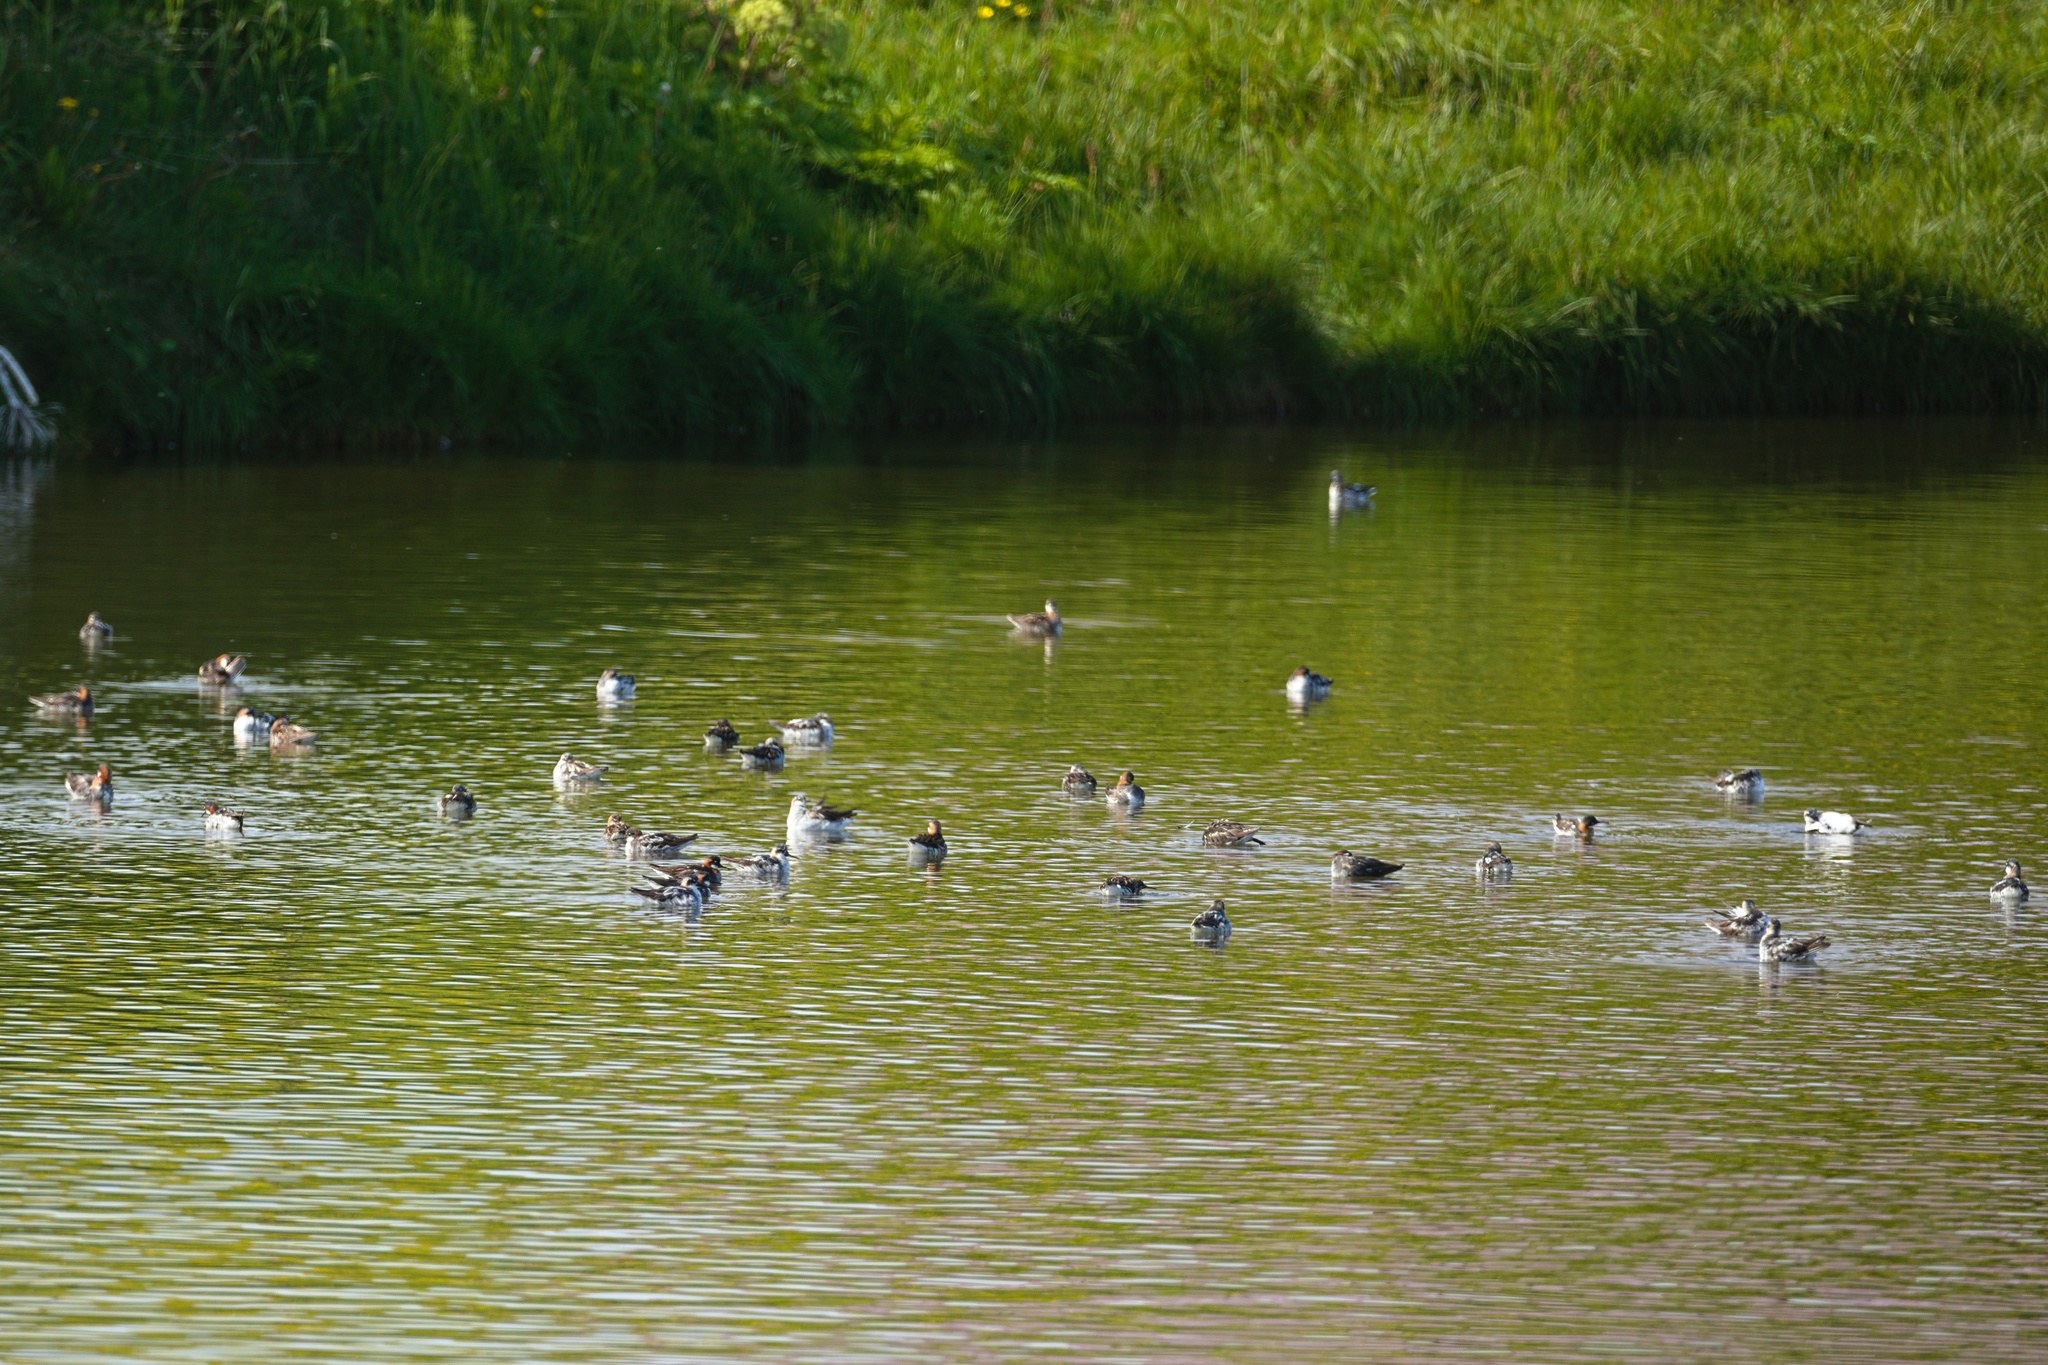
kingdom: Animalia
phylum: Chordata
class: Aves
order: Charadriiformes
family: Scolopacidae
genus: Phalaropus
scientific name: Phalaropus lobatus
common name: Red-necked phalarope
